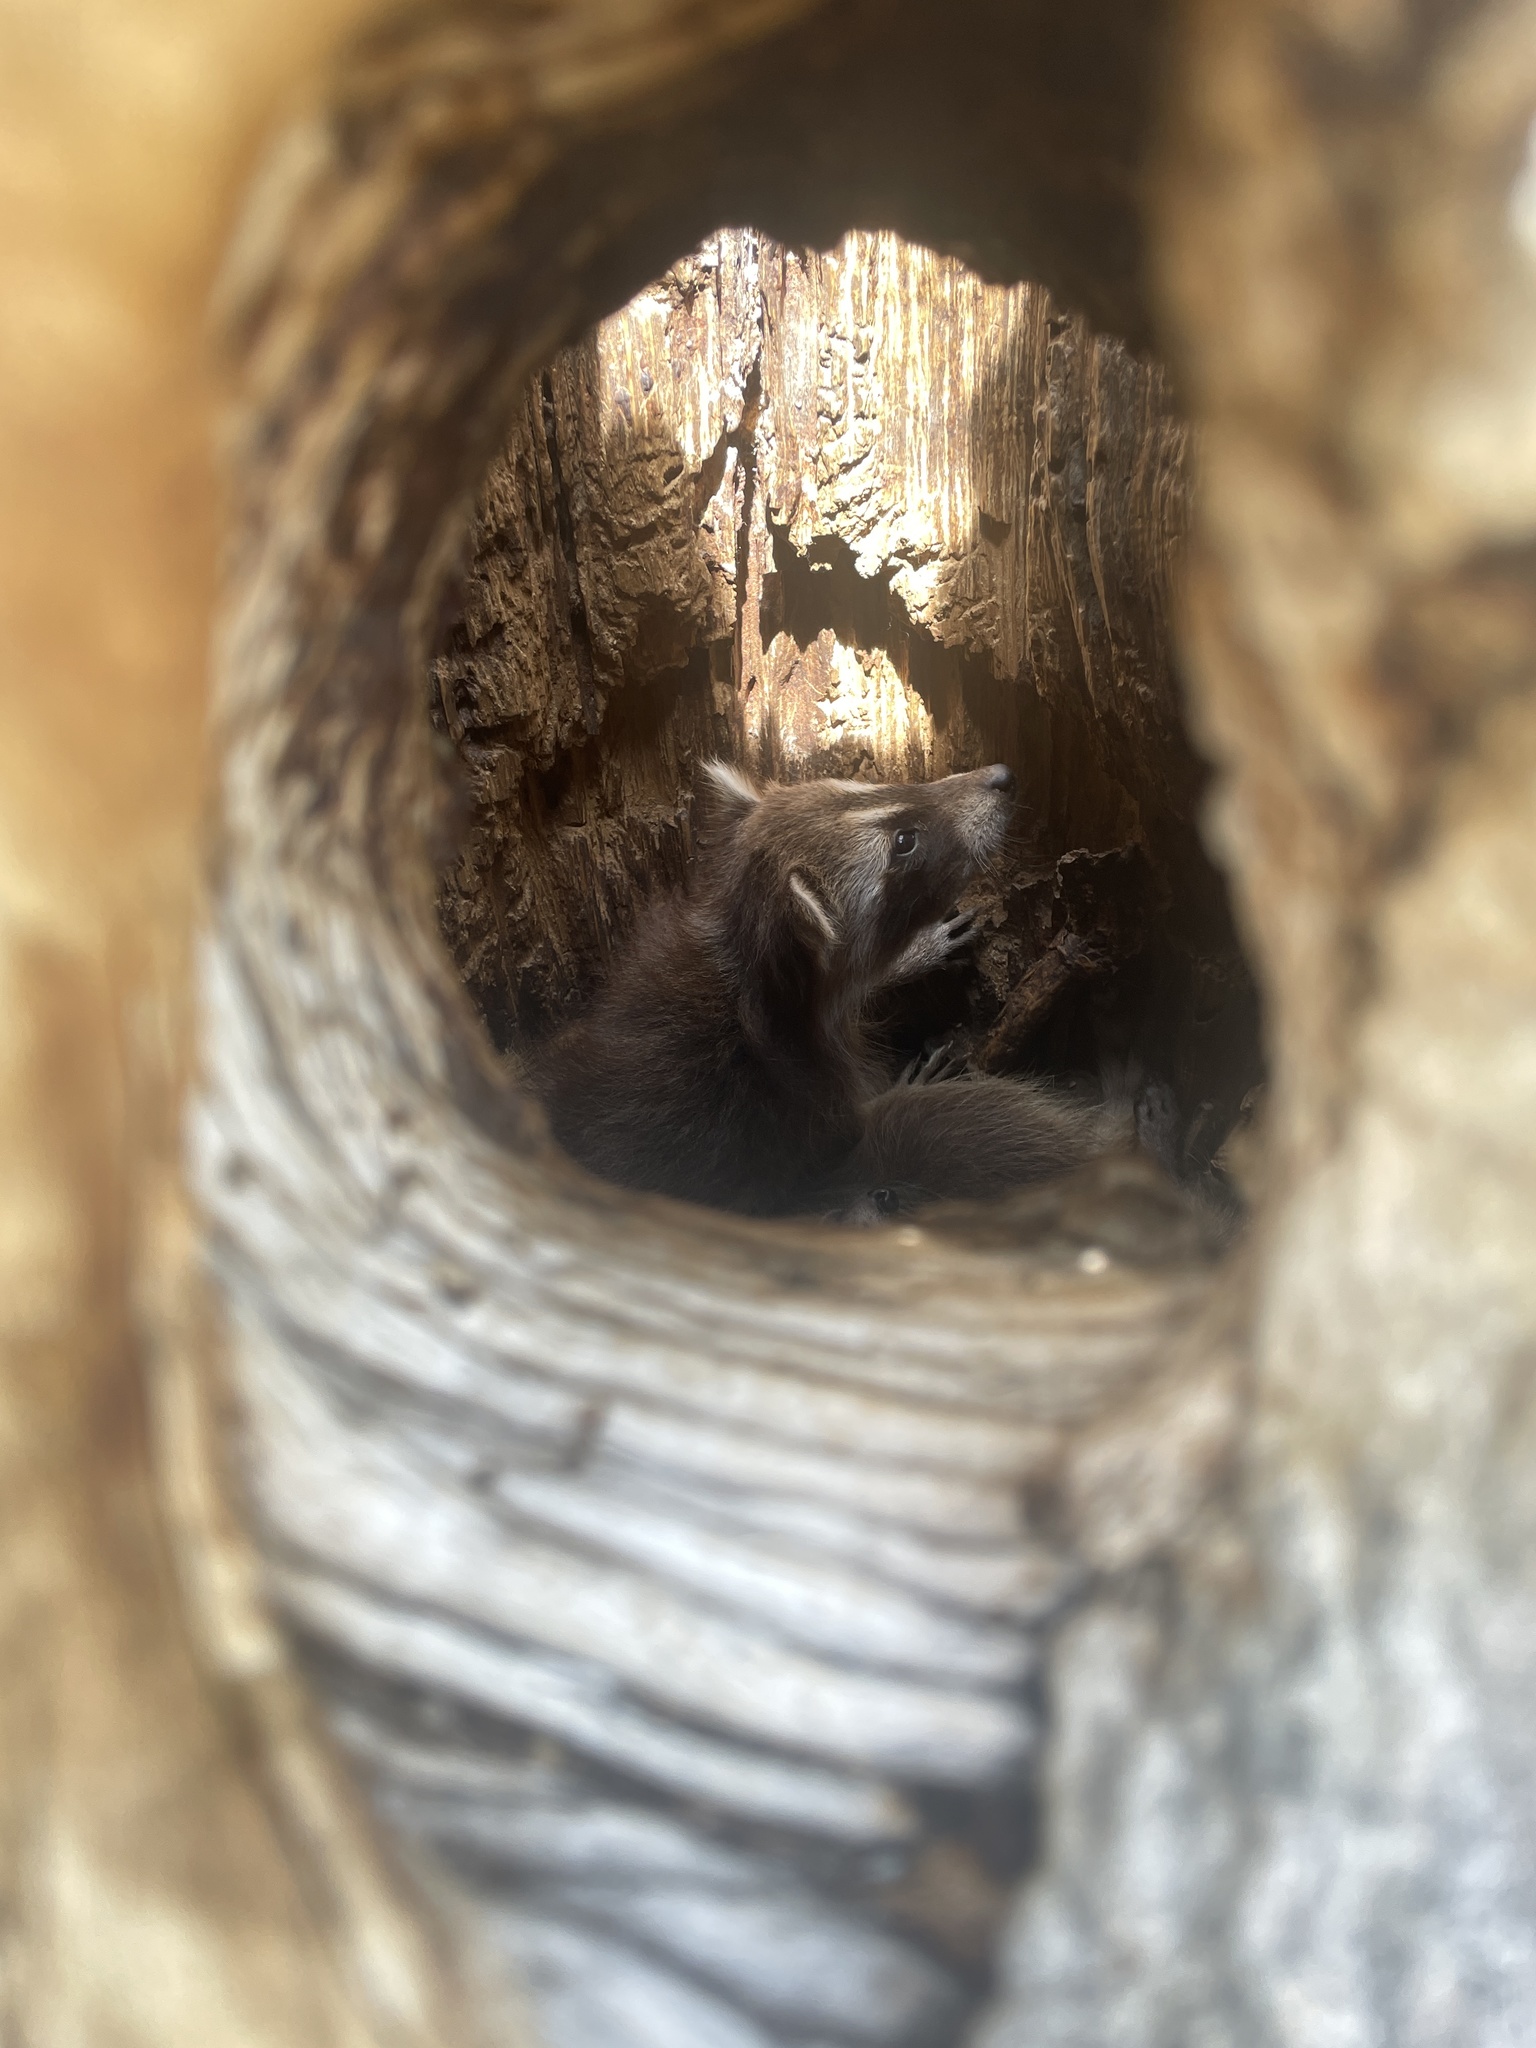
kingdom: Animalia
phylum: Chordata
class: Mammalia
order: Carnivora
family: Procyonidae
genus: Procyon
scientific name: Procyon lotor
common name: Raccoon
